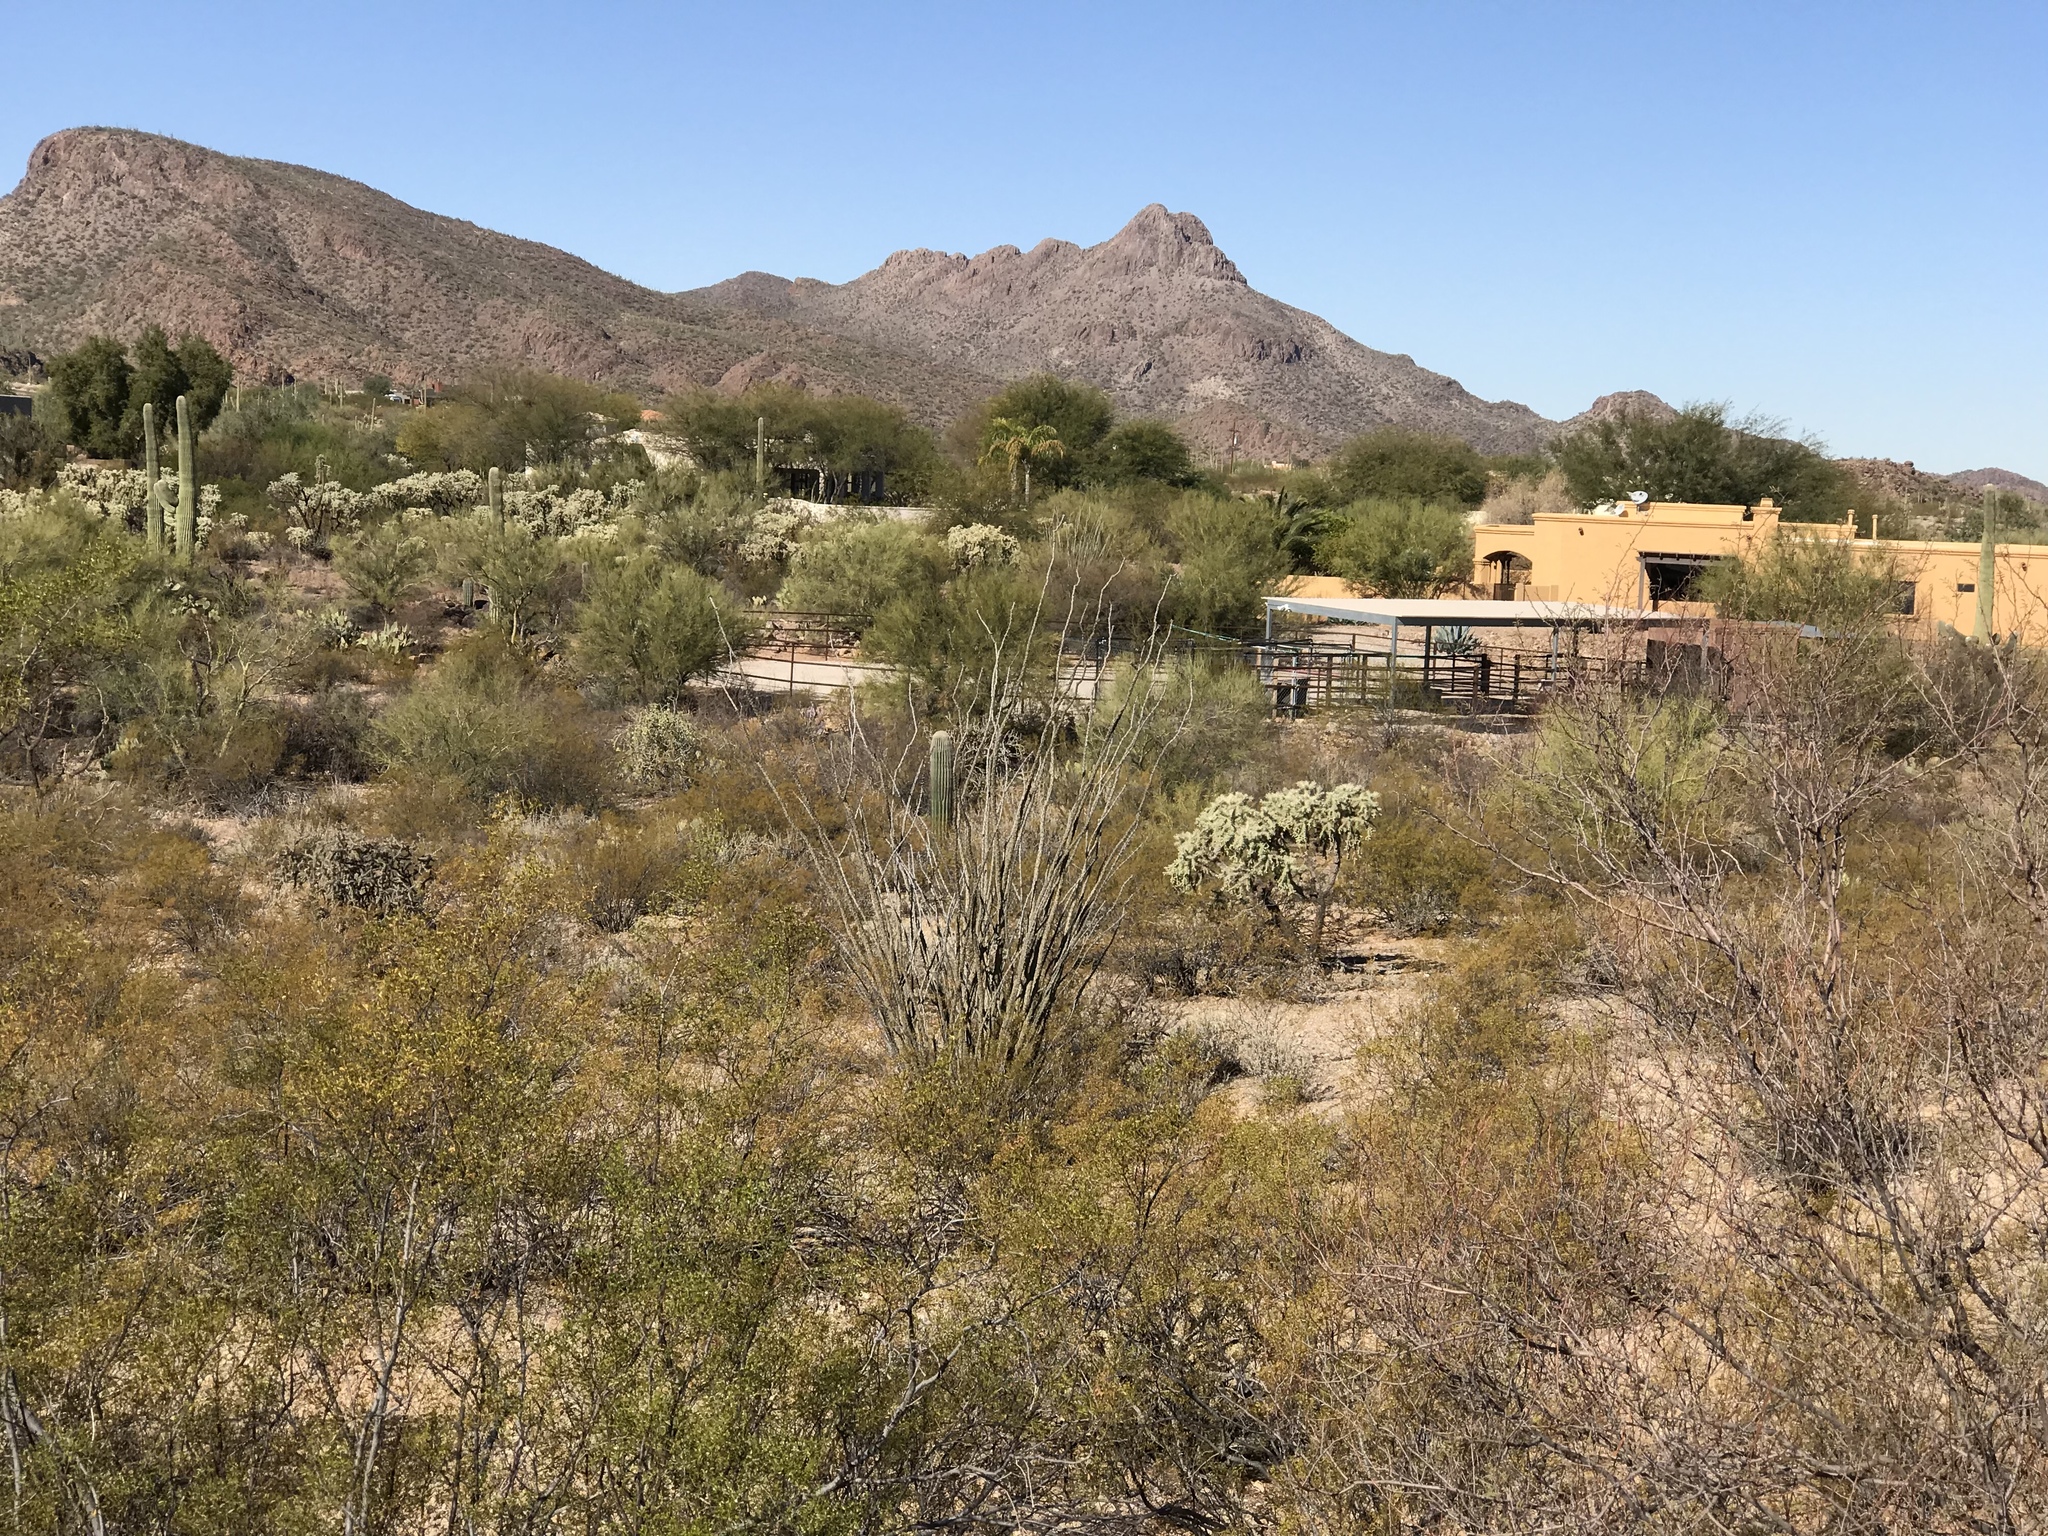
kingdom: Plantae
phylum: Tracheophyta
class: Magnoliopsida
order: Zygophyllales
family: Zygophyllaceae
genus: Larrea
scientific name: Larrea tridentata
